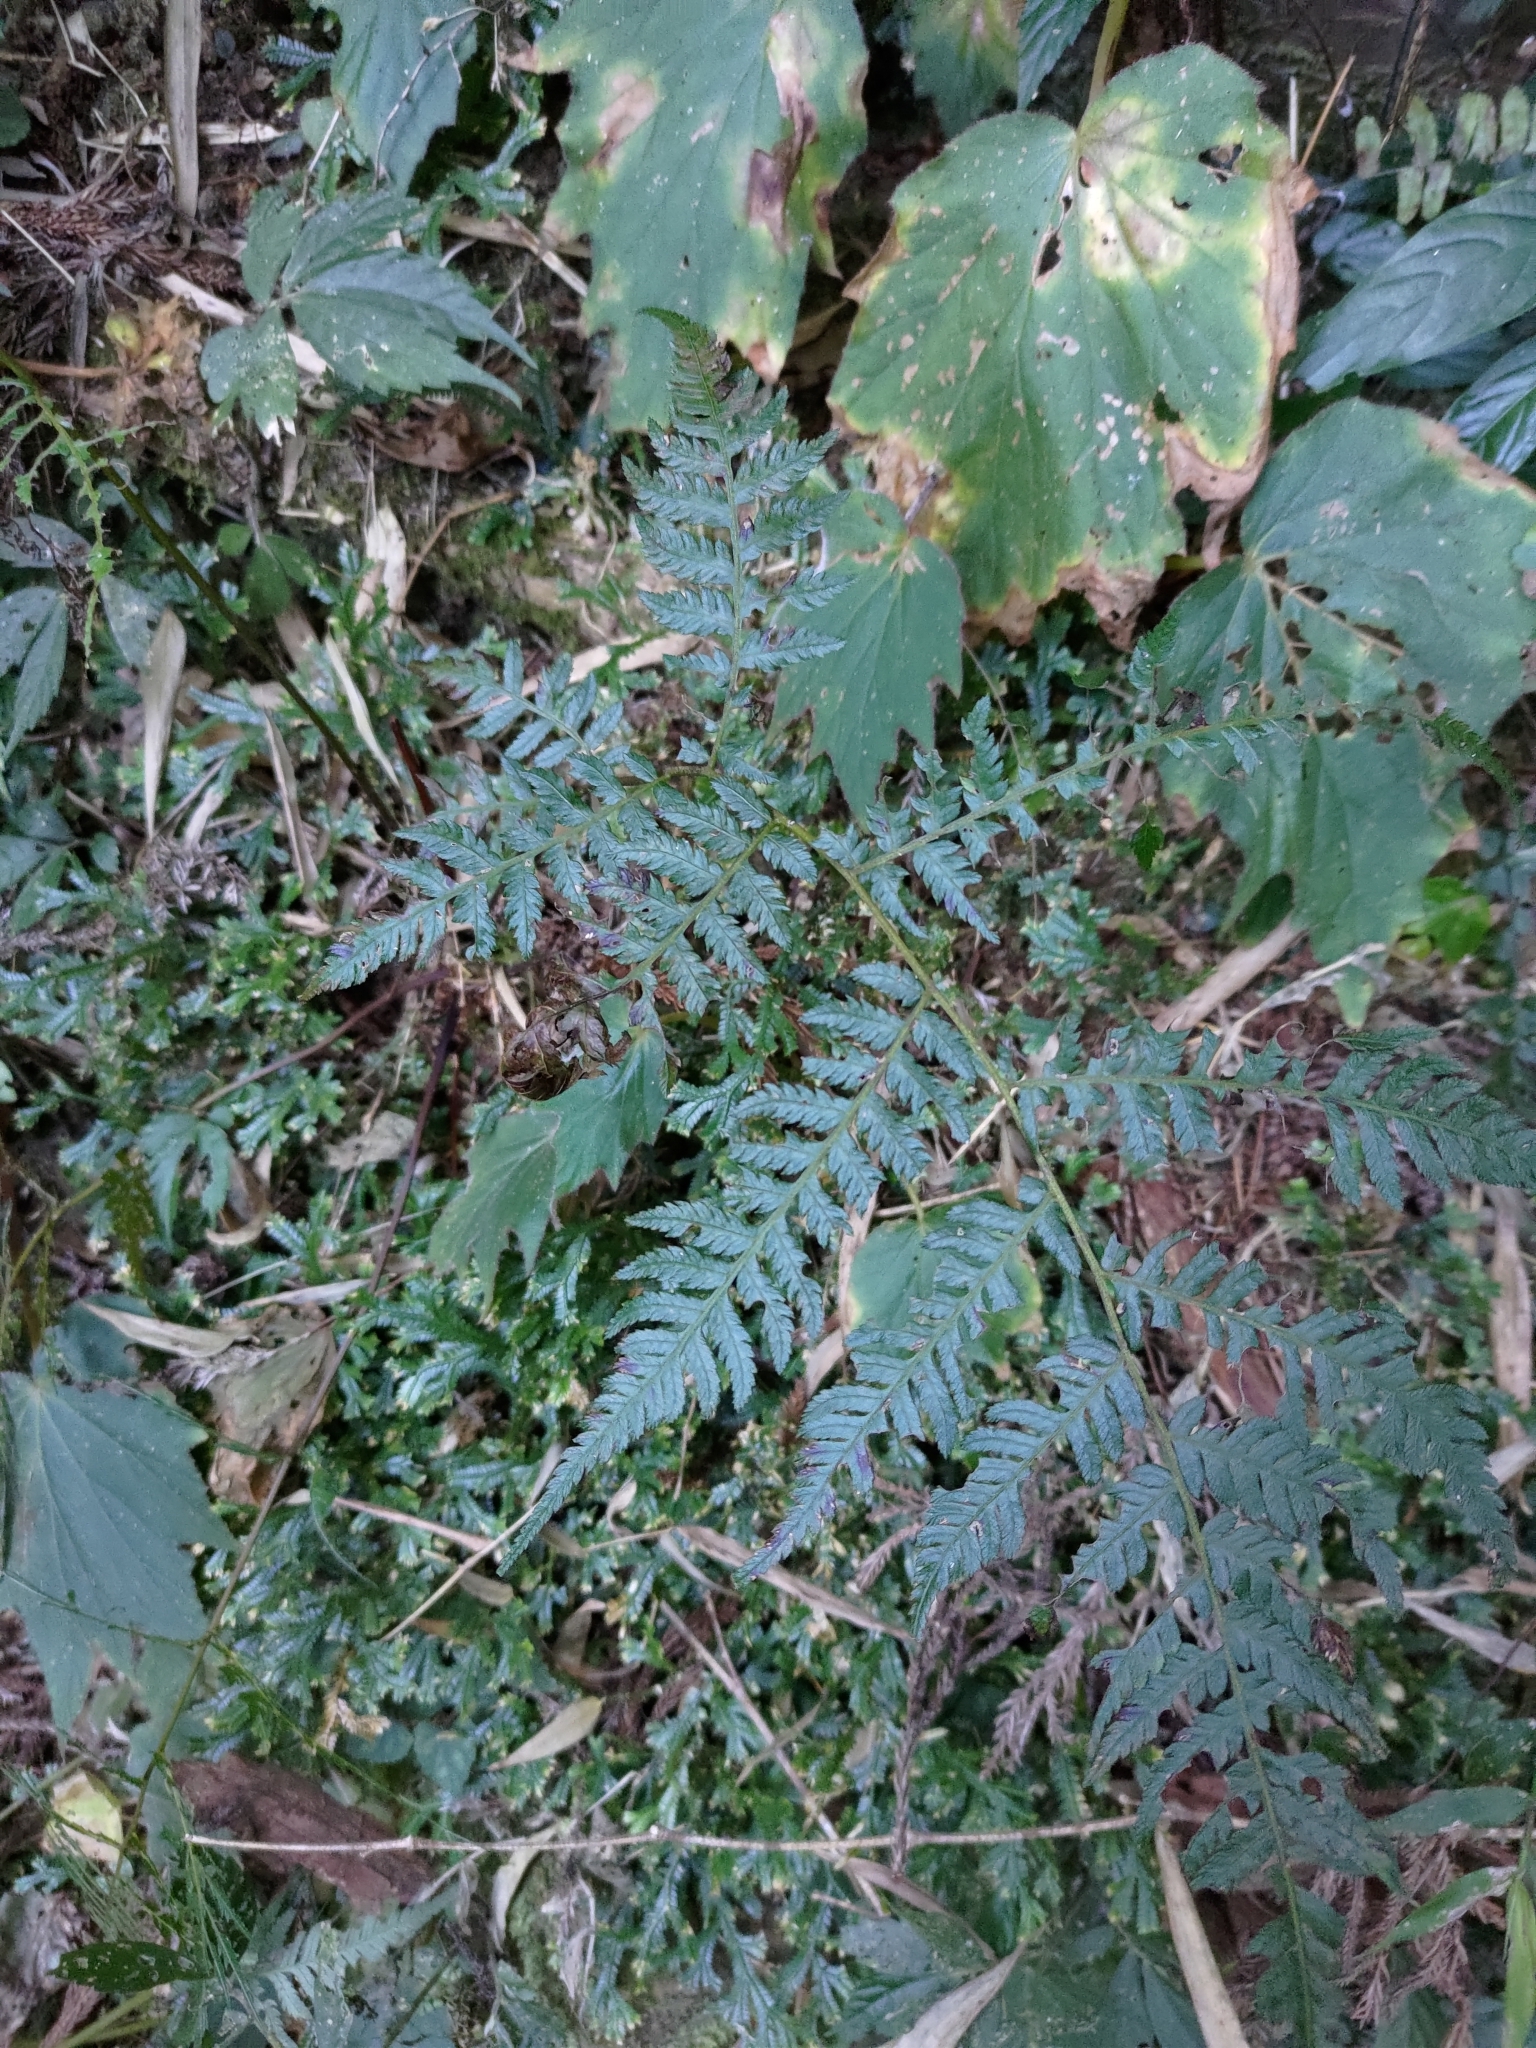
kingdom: Plantae
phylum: Tracheophyta
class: Polypodiopsida
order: Cyatheales
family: Cyatheaceae
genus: Alsophila
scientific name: Alsophila spinulosa
